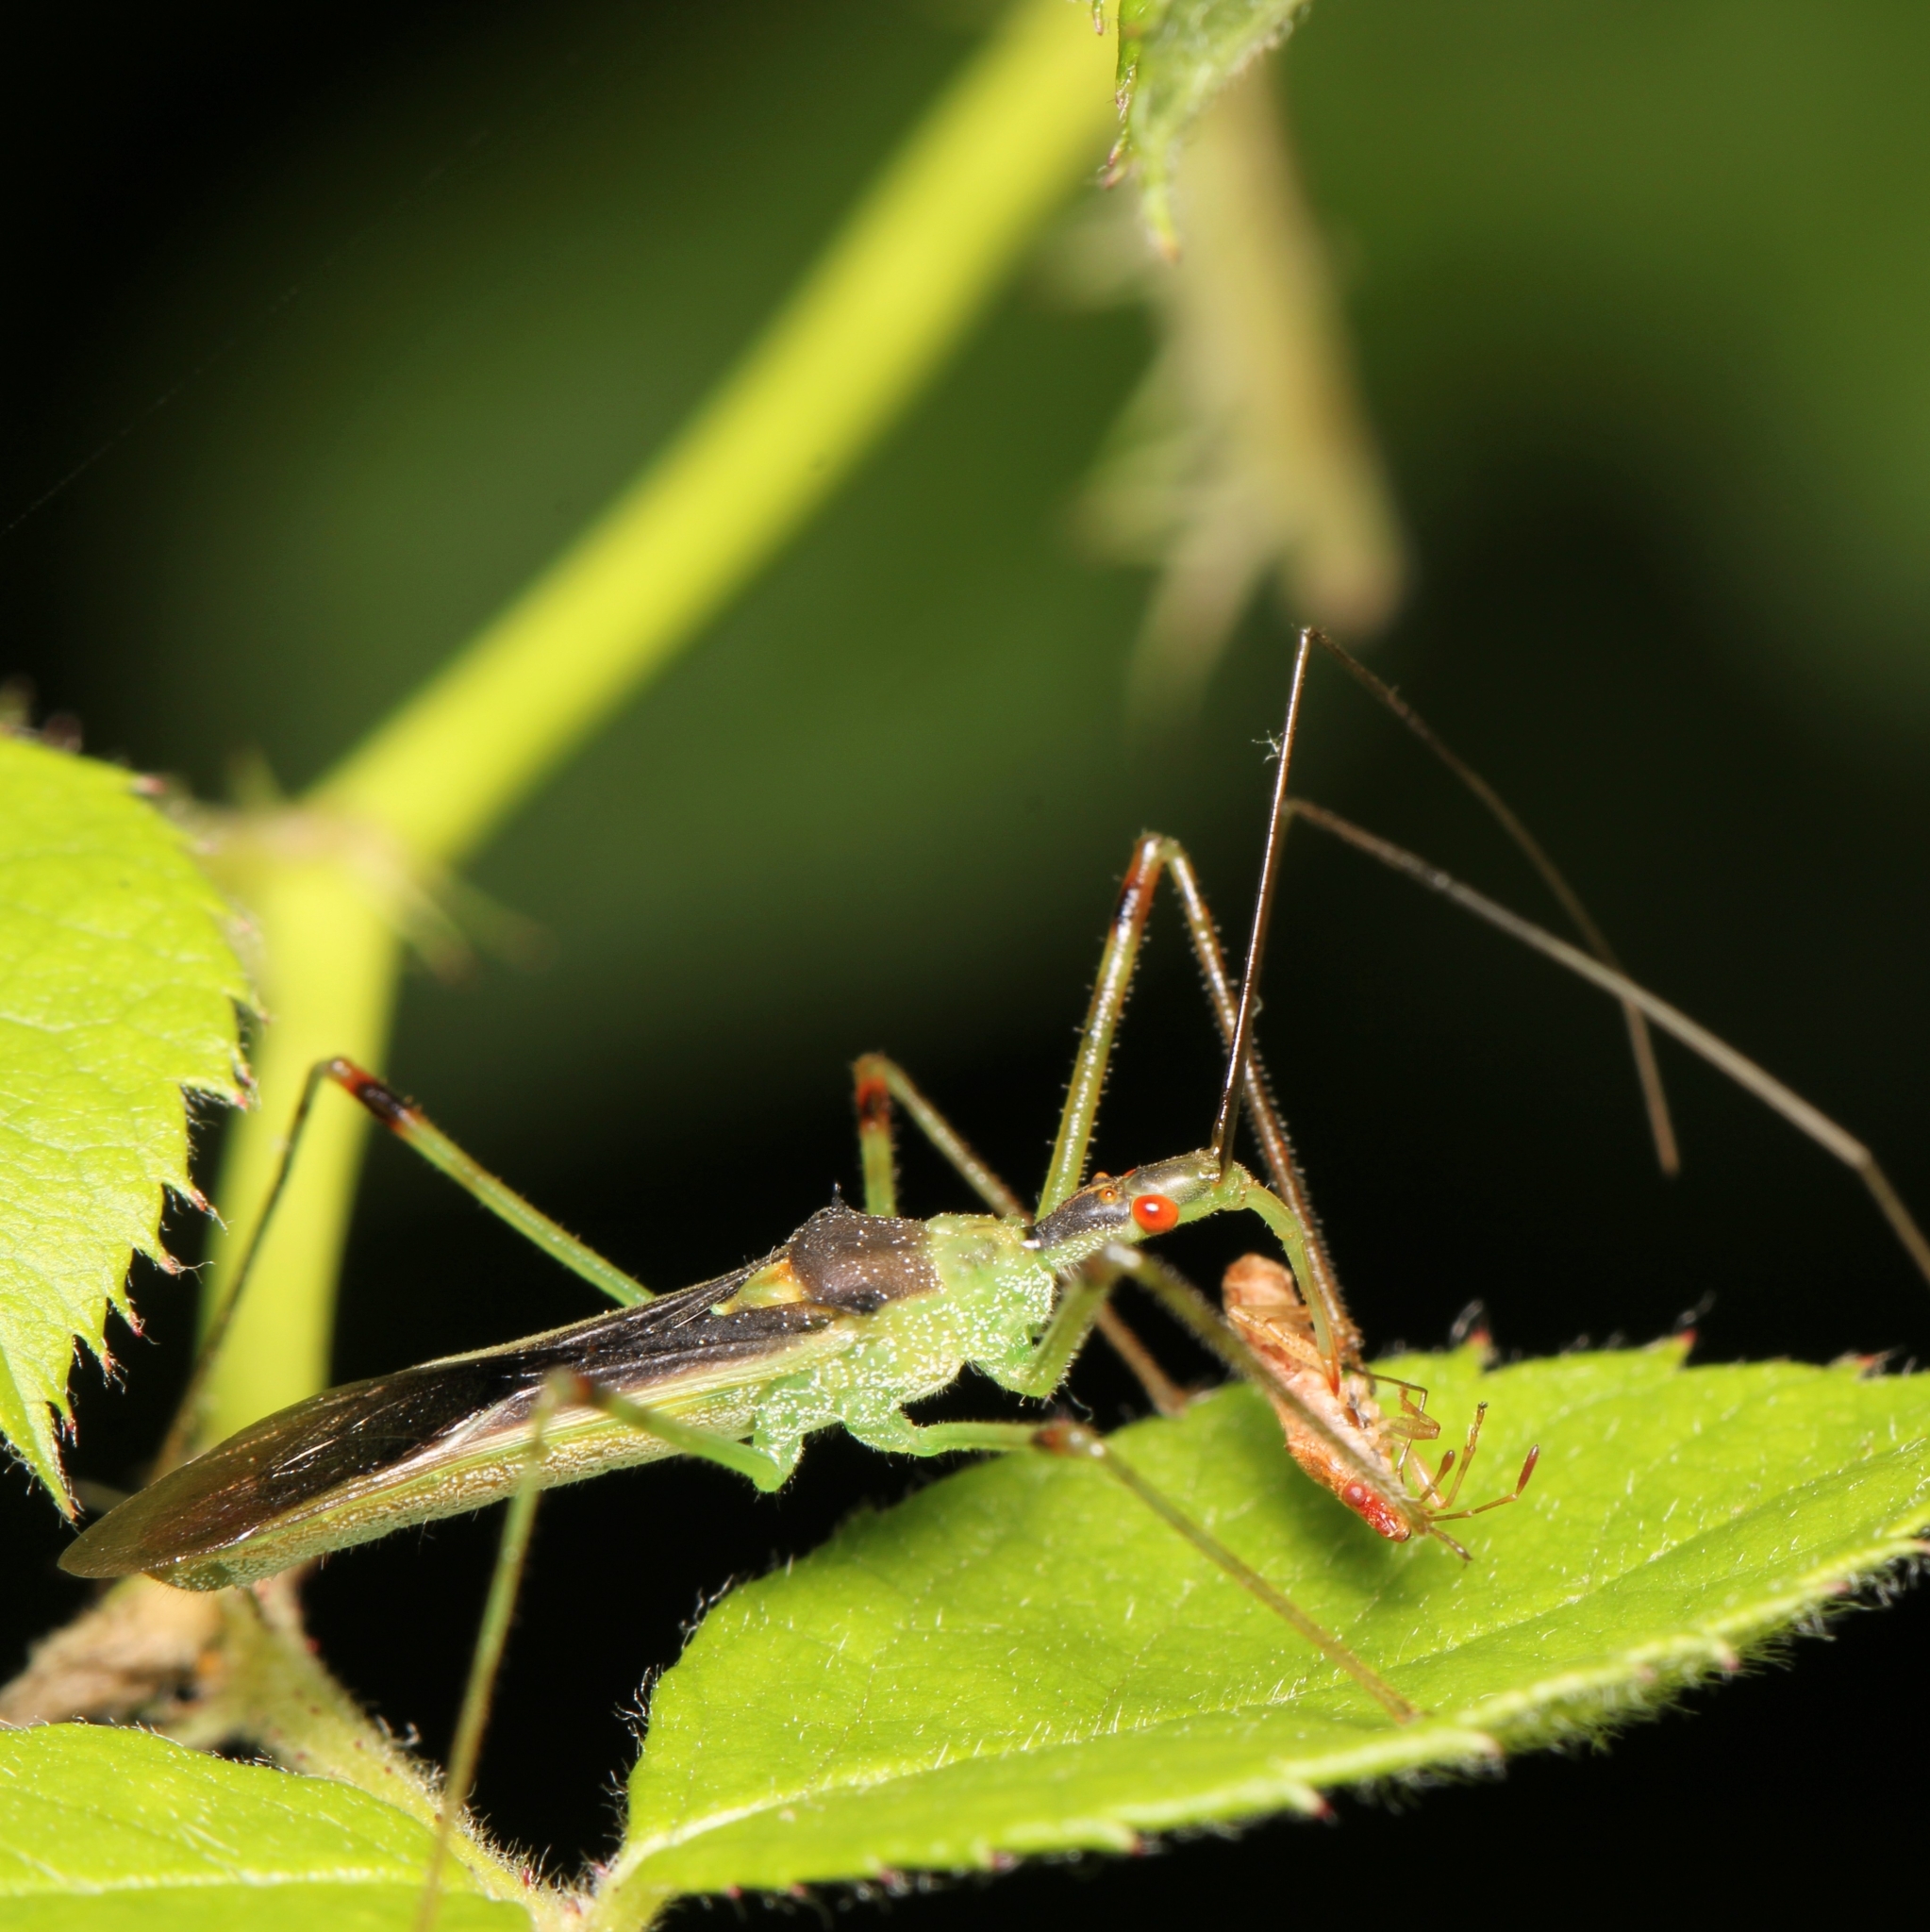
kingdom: Animalia
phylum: Arthropoda
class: Insecta
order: Hemiptera
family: Reduviidae
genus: Zelus
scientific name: Zelus luridus
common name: Pale green assassin bug
